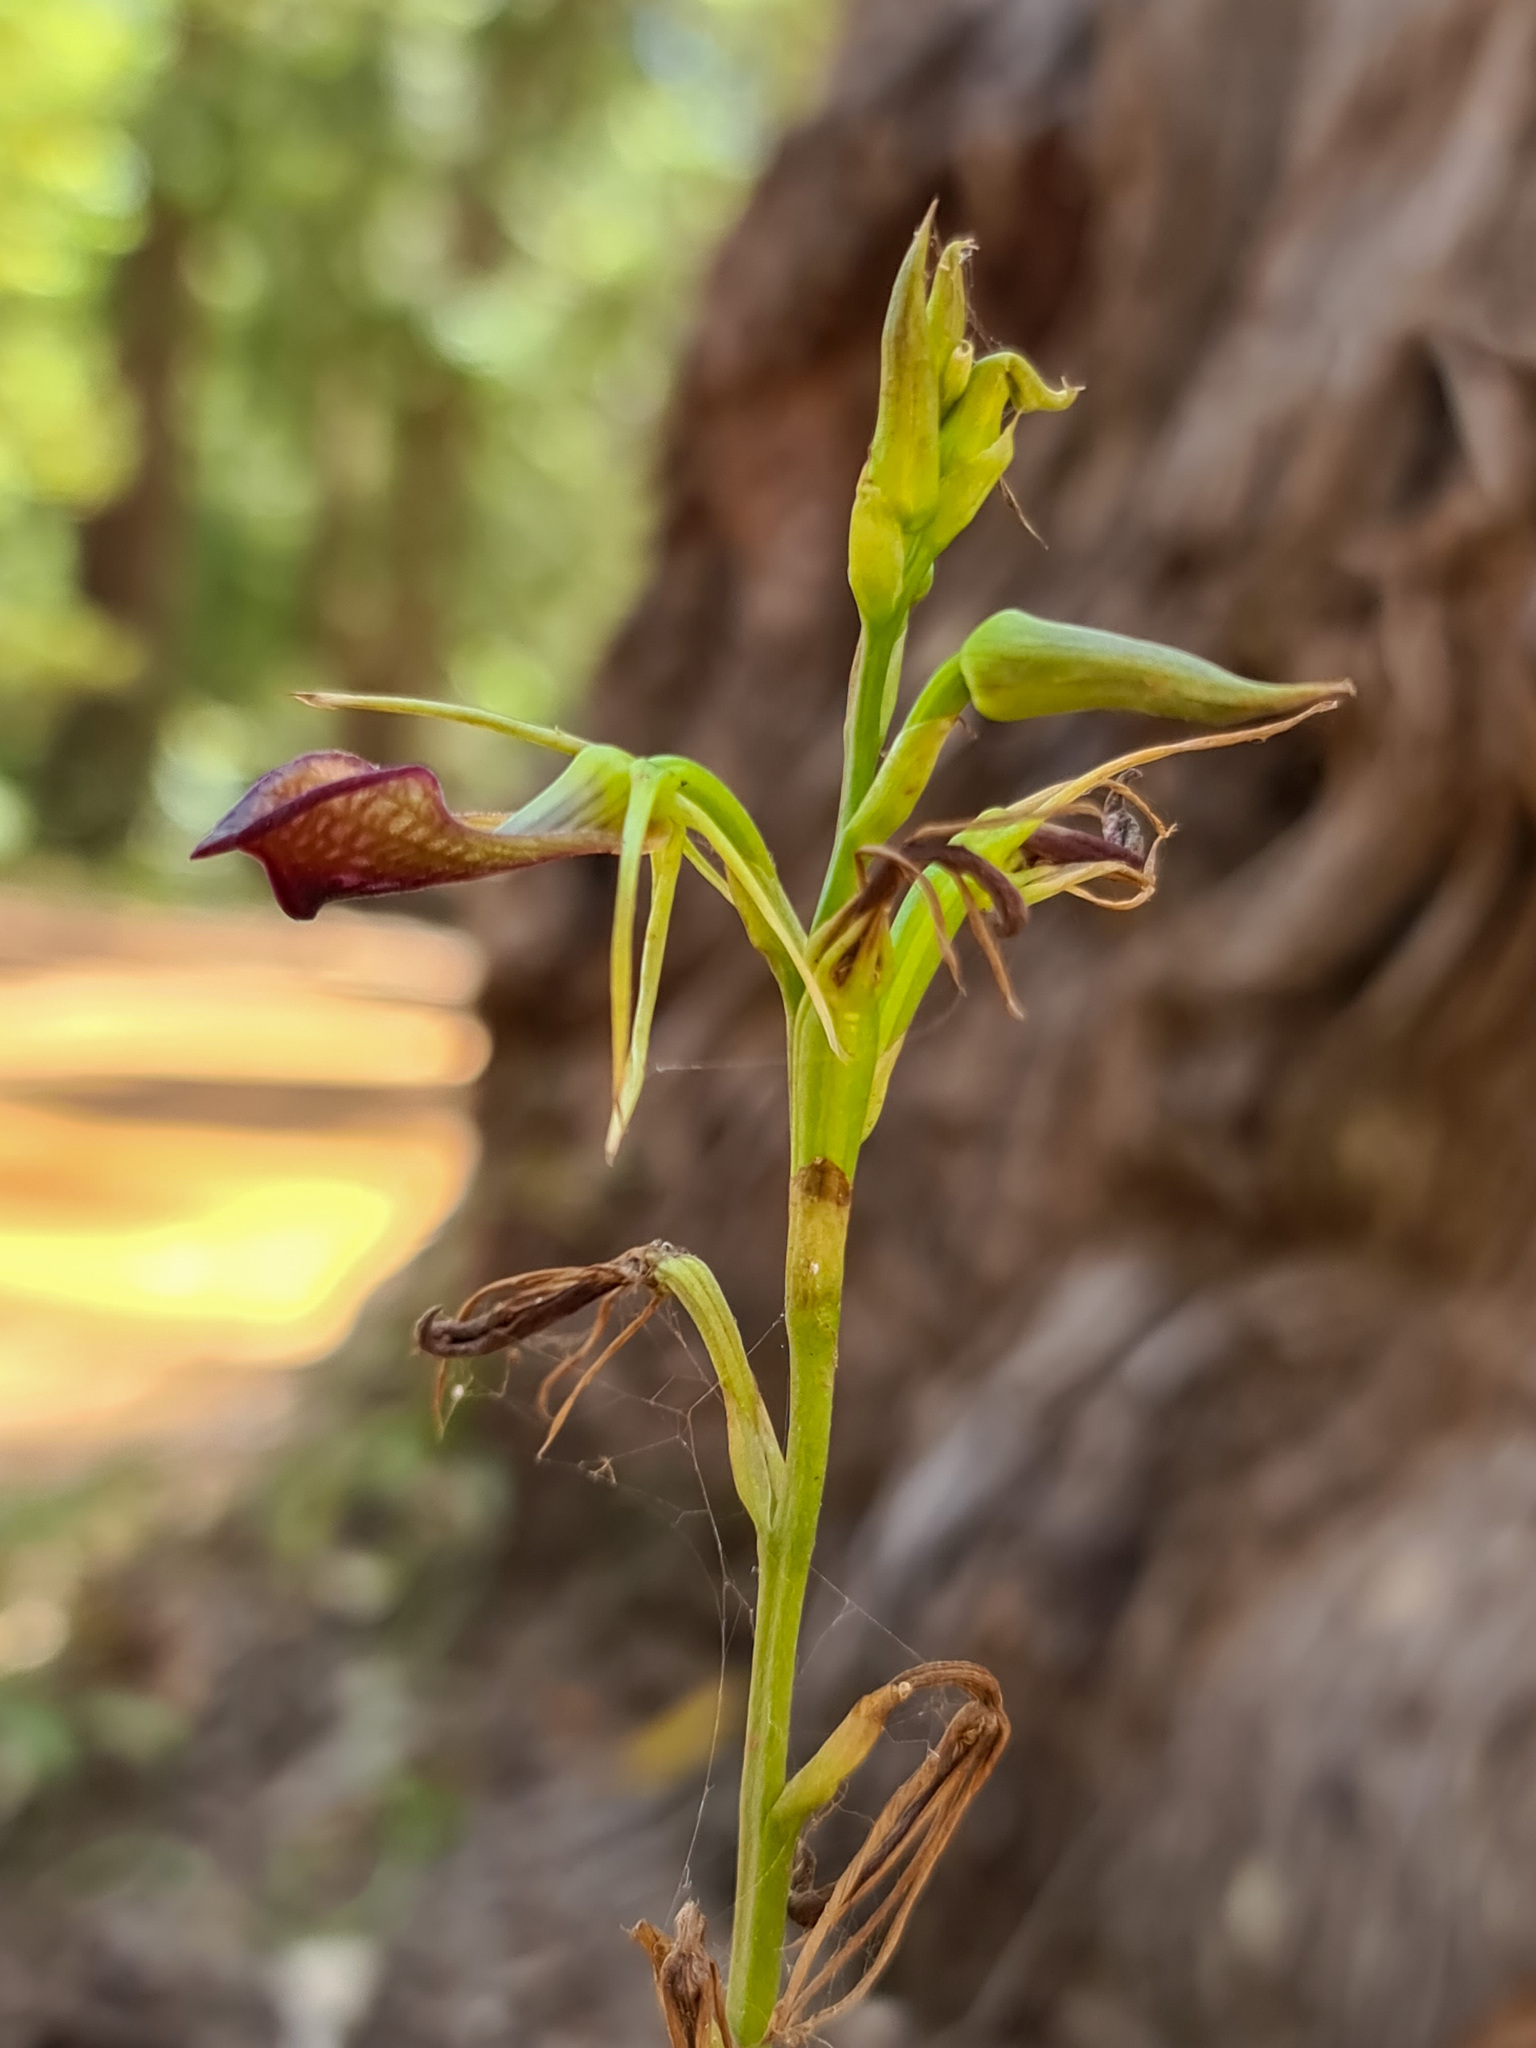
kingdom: Plantae
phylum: Tracheophyta
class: Liliopsida
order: Asparagales
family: Orchidaceae
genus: Cryptostylis
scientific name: Cryptostylis ovata
